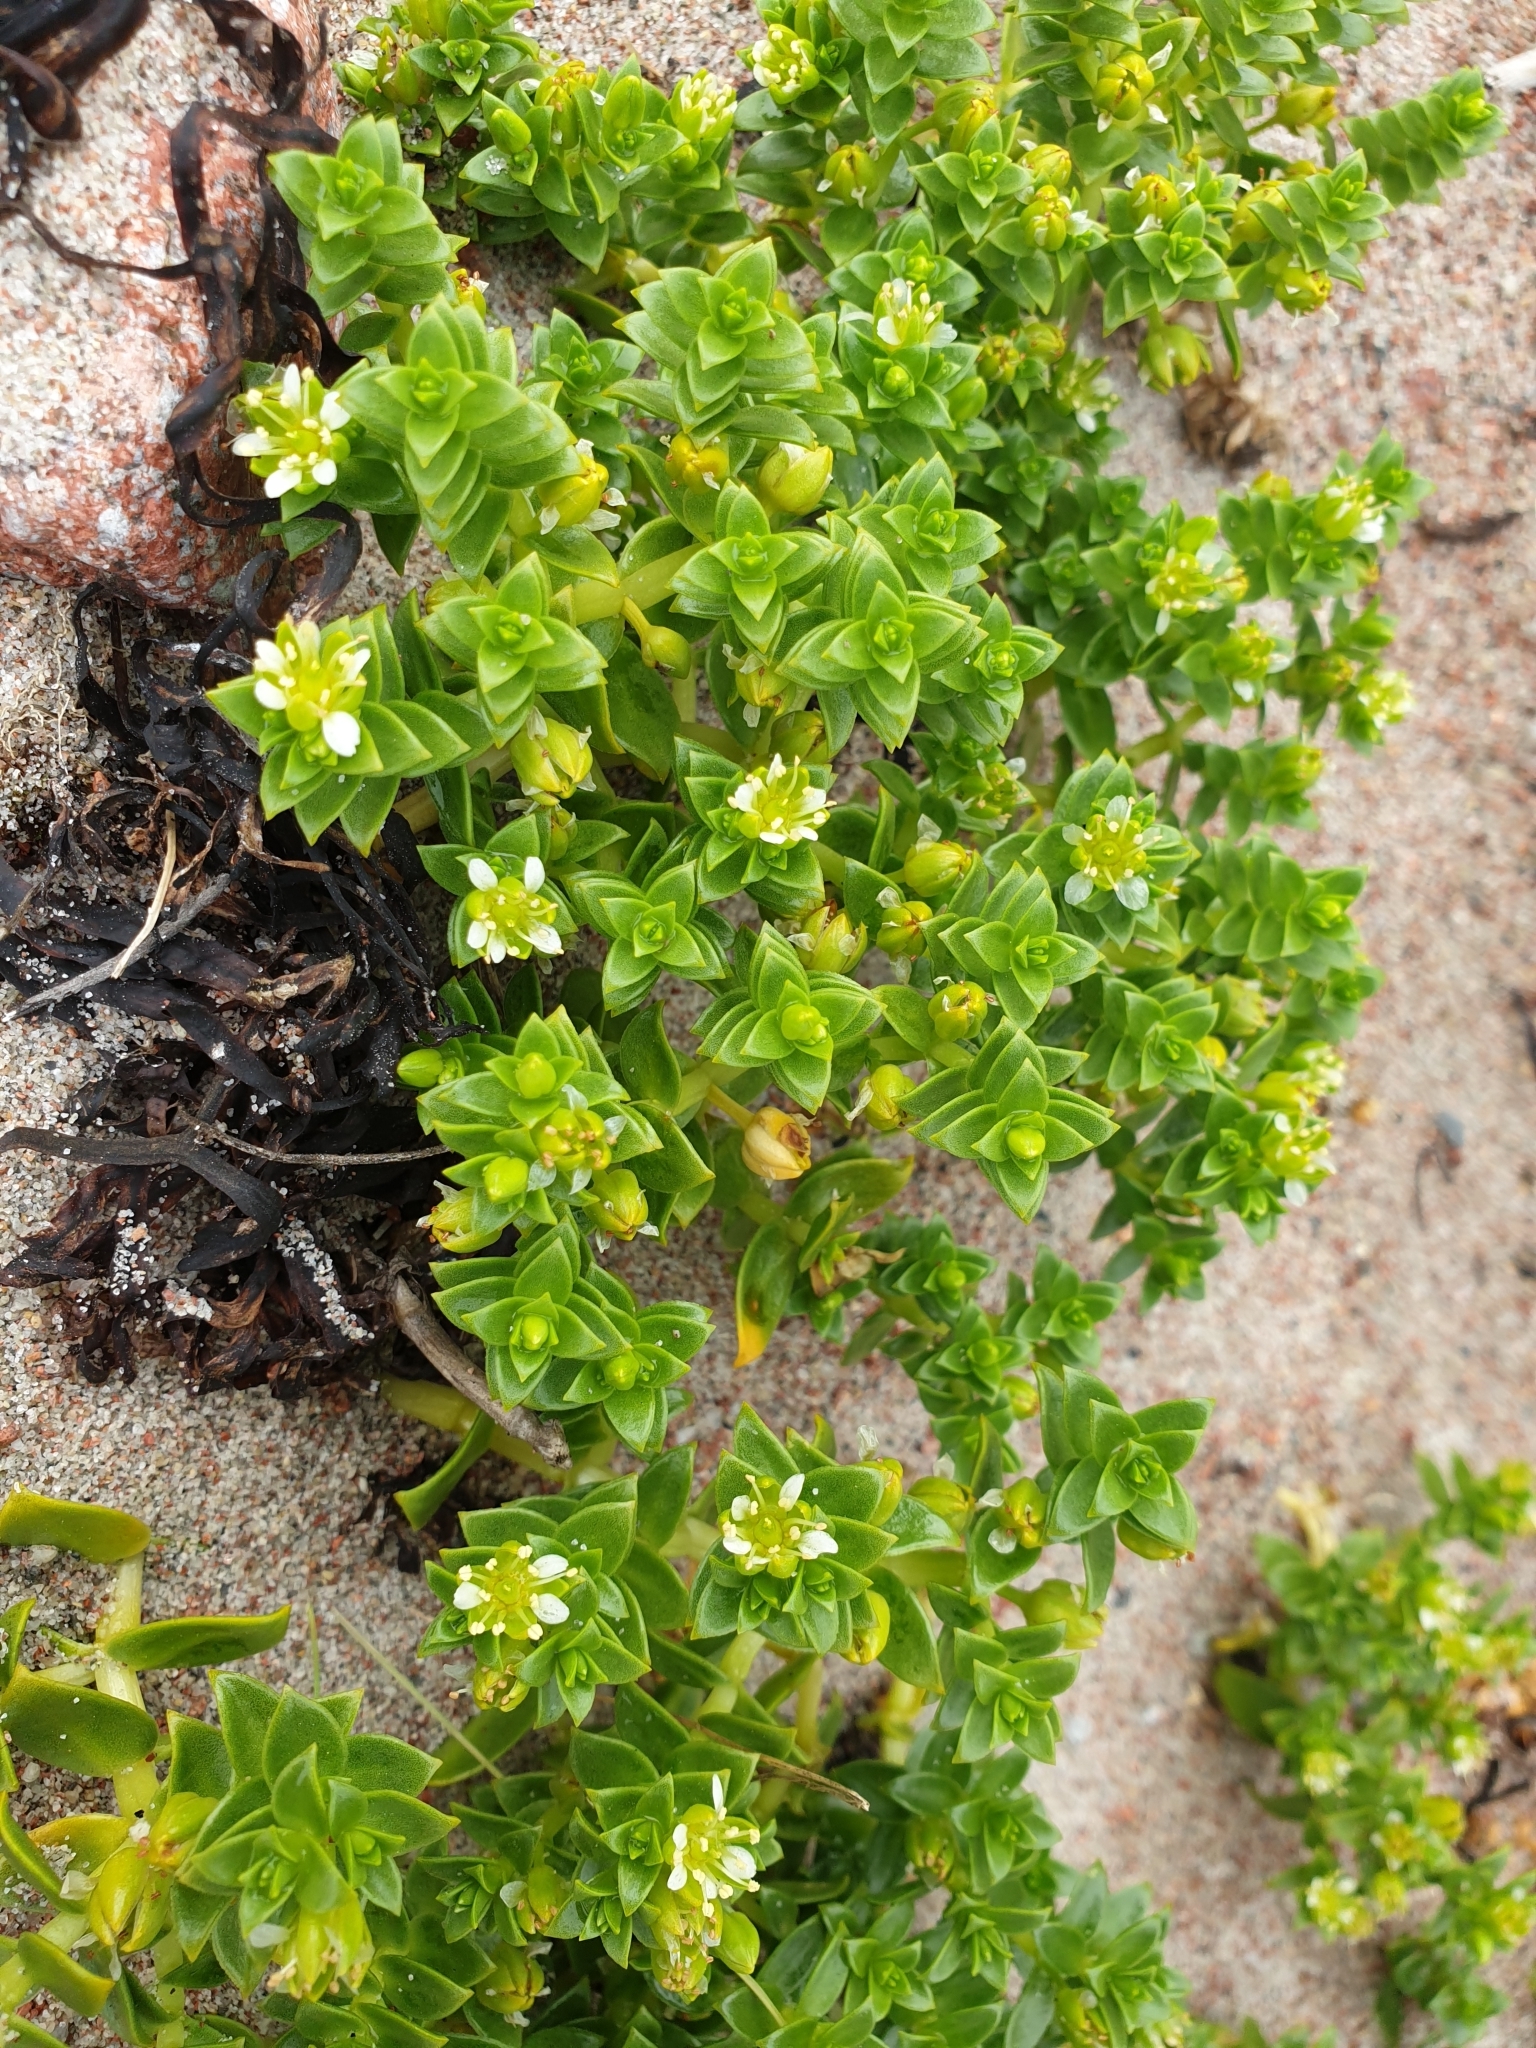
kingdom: Plantae
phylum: Tracheophyta
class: Magnoliopsida
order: Caryophyllales
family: Caryophyllaceae
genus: Honckenya
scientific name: Honckenya peploides
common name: Sea sandwort
